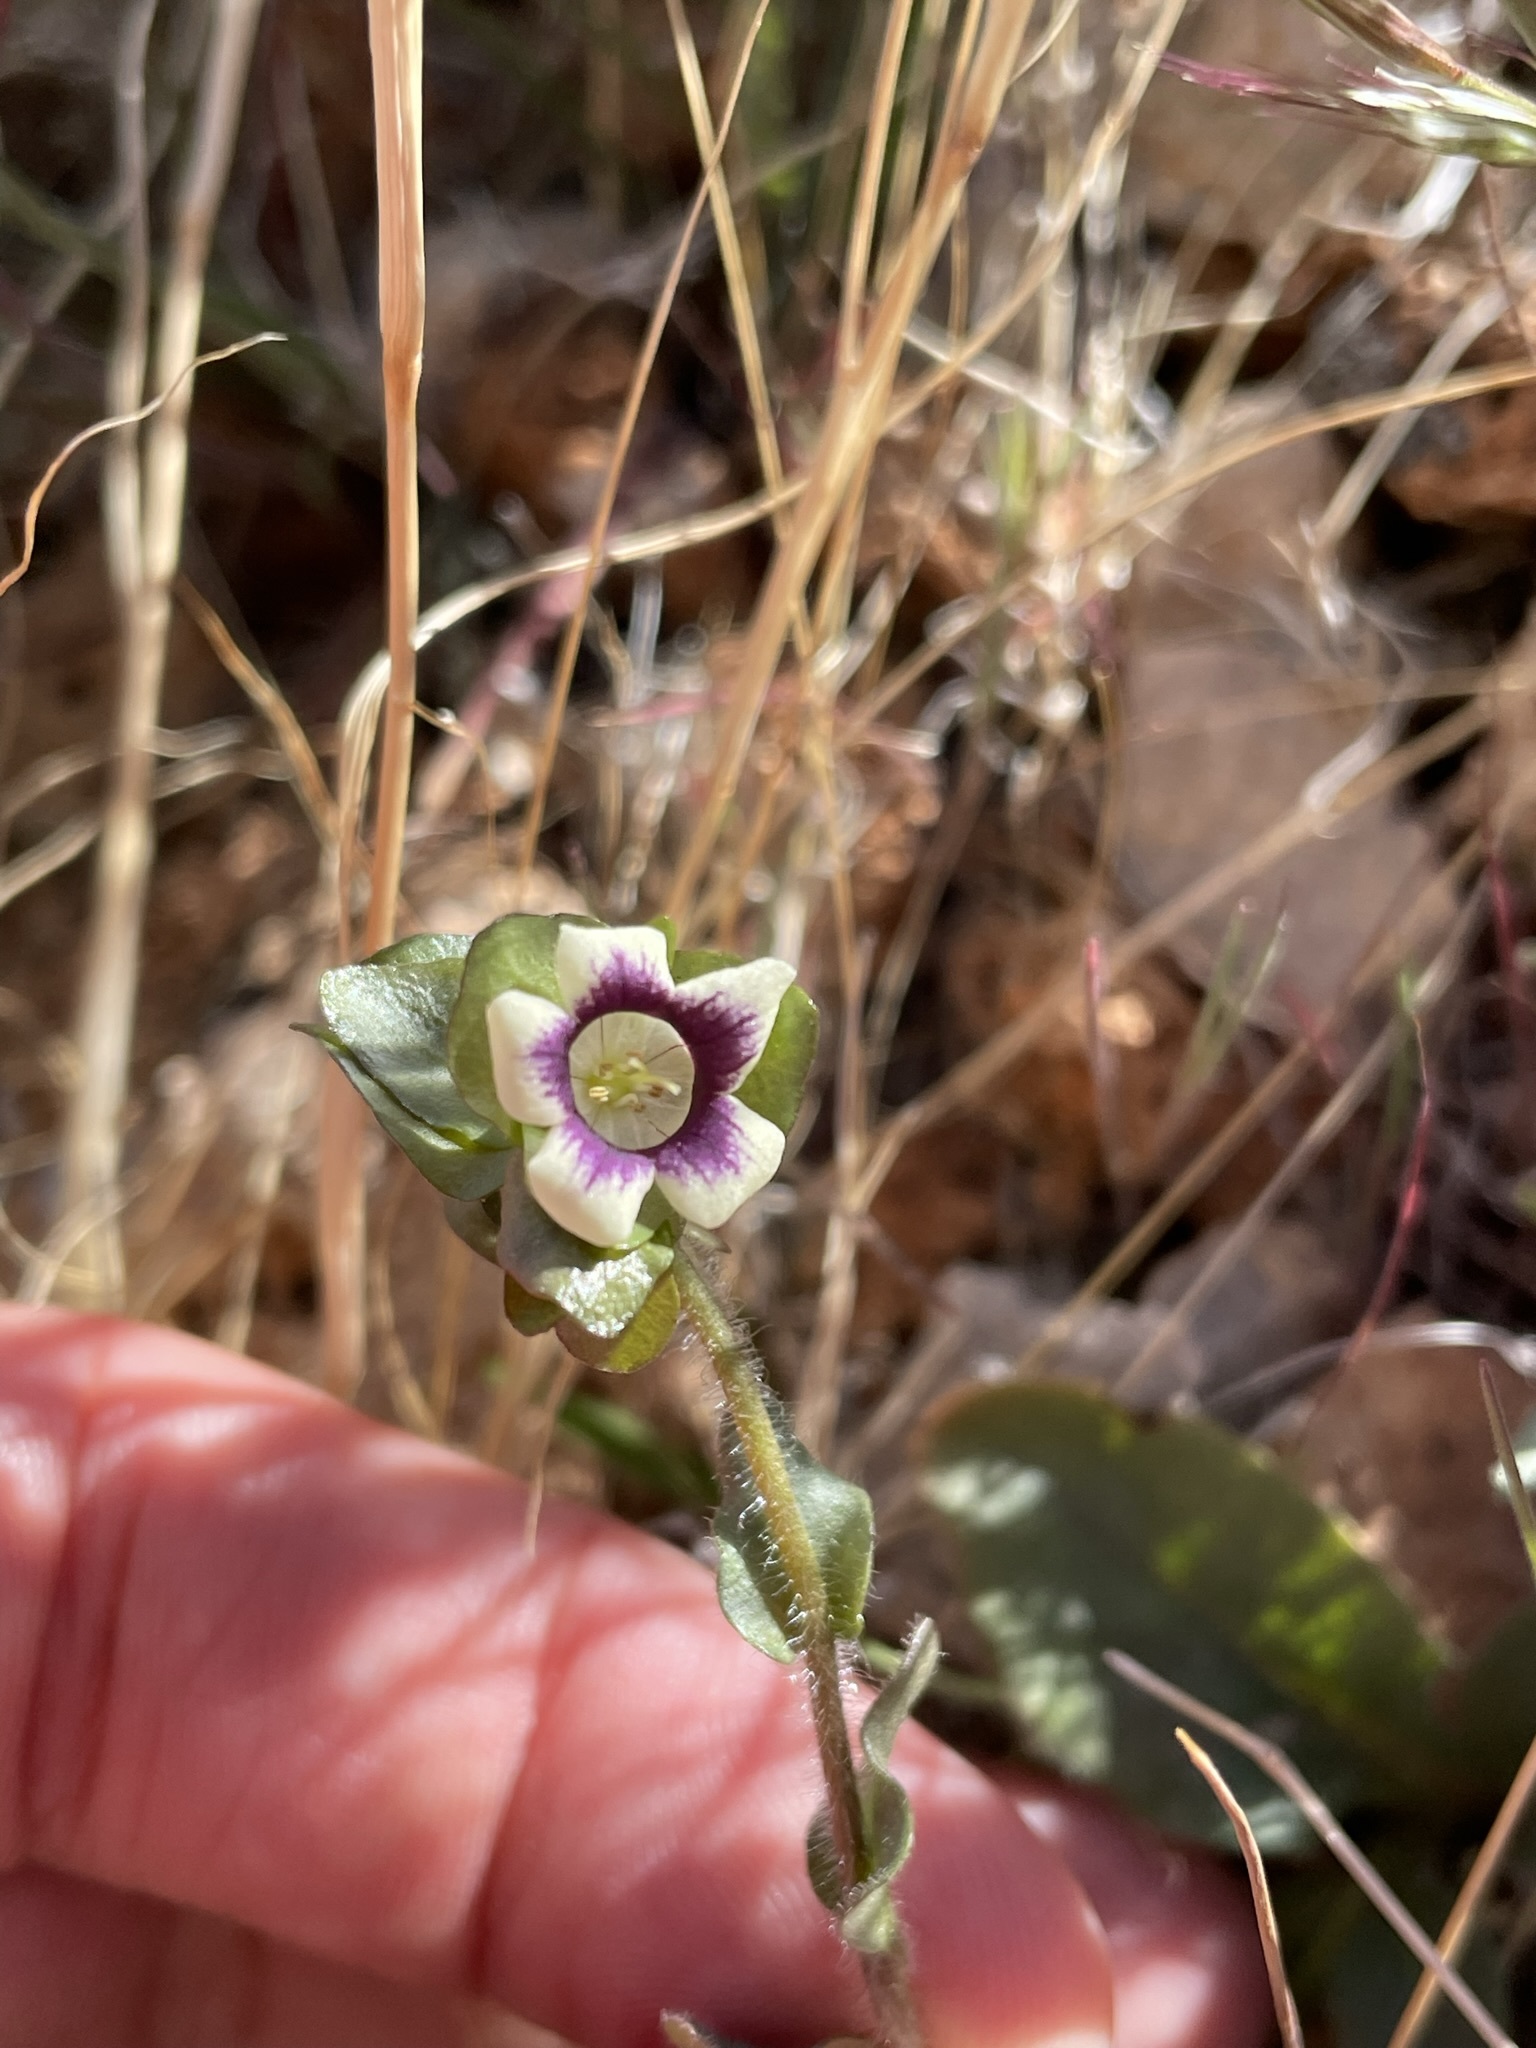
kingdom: Plantae
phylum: Tracheophyta
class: Magnoliopsida
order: Boraginales
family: Hydrophyllaceae
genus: Tricardia
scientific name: Tricardia watsonii
